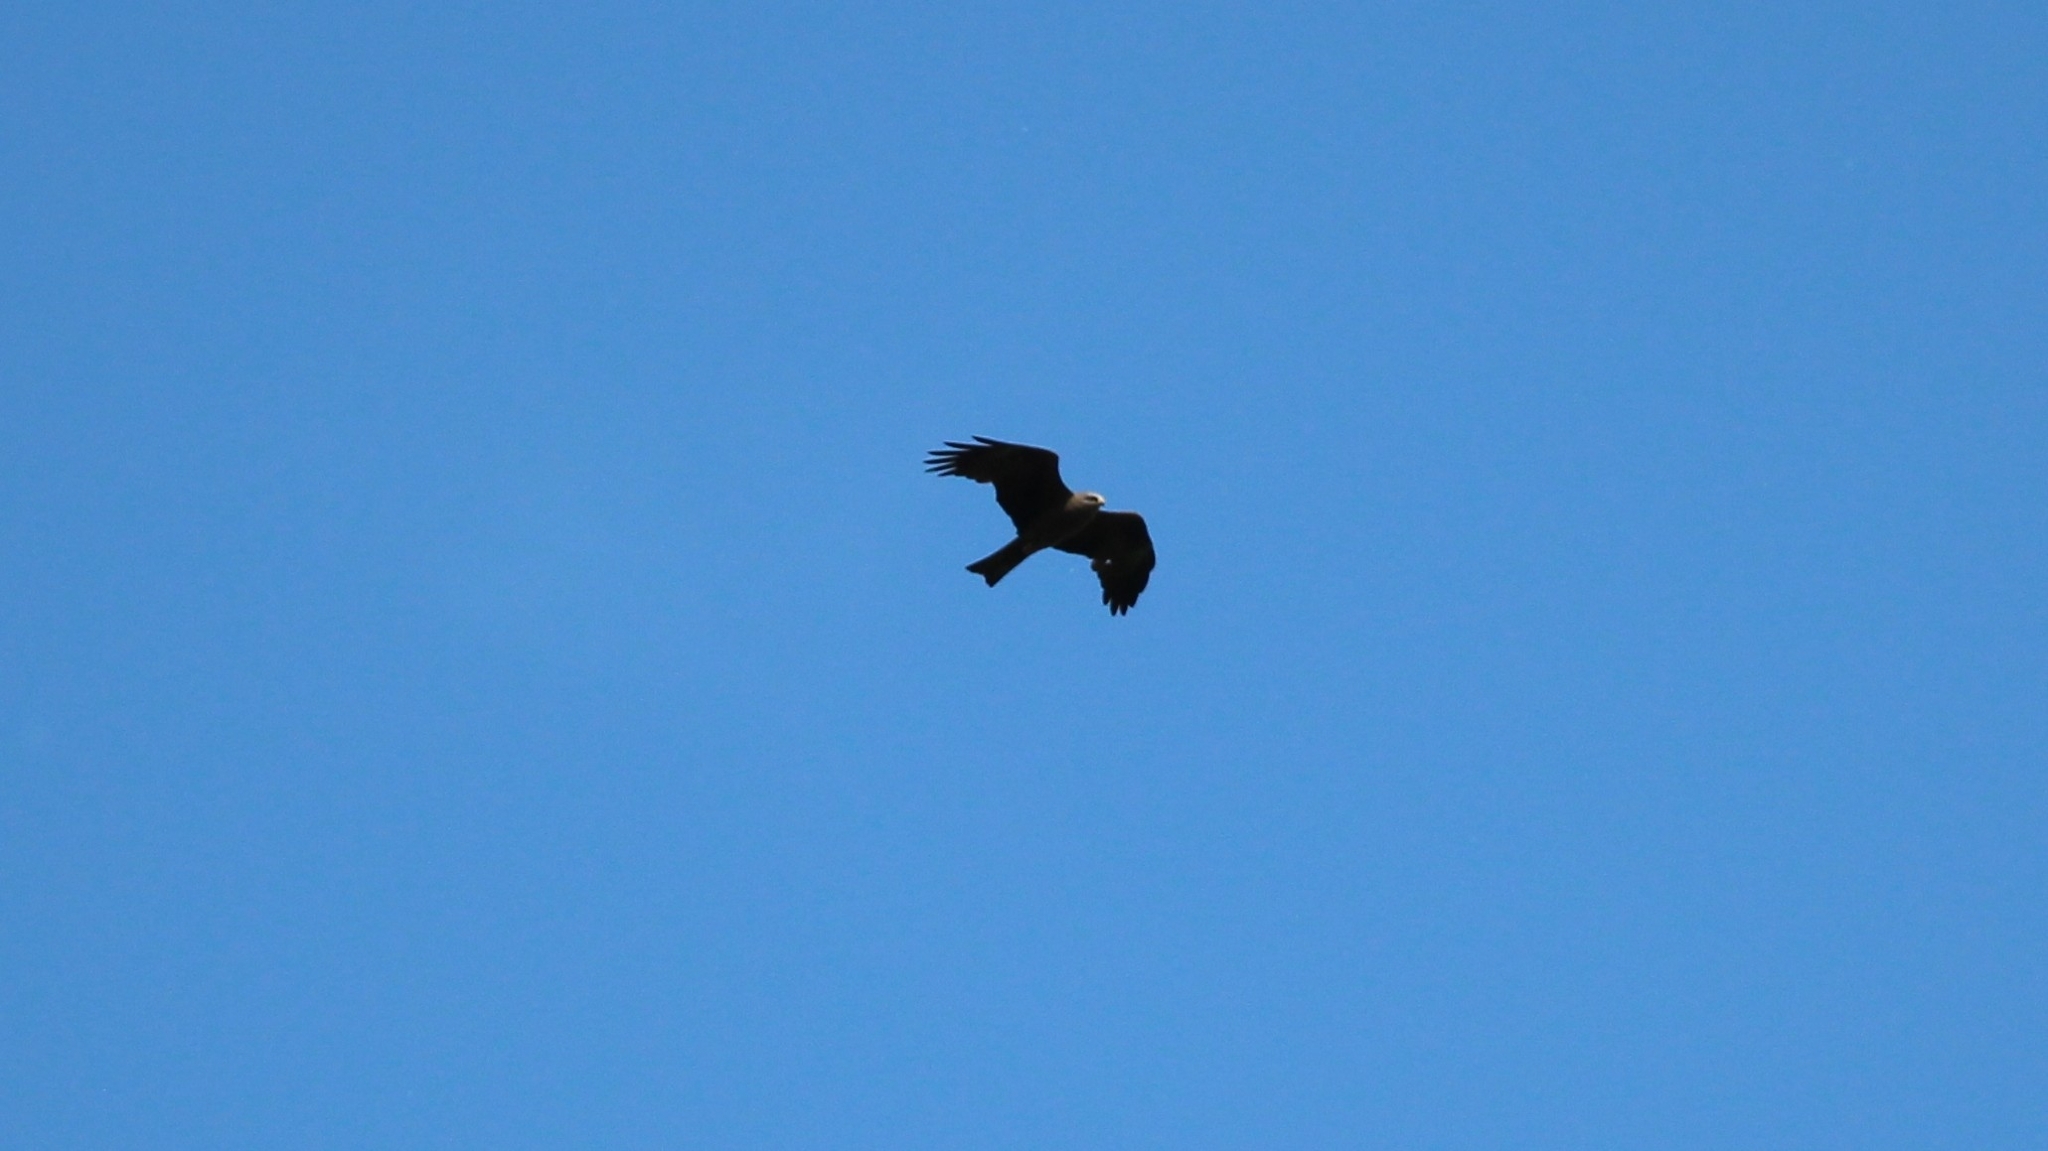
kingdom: Animalia
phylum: Chordata
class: Aves
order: Accipitriformes
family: Accipitridae
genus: Milvus
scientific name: Milvus migrans
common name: Black kite
